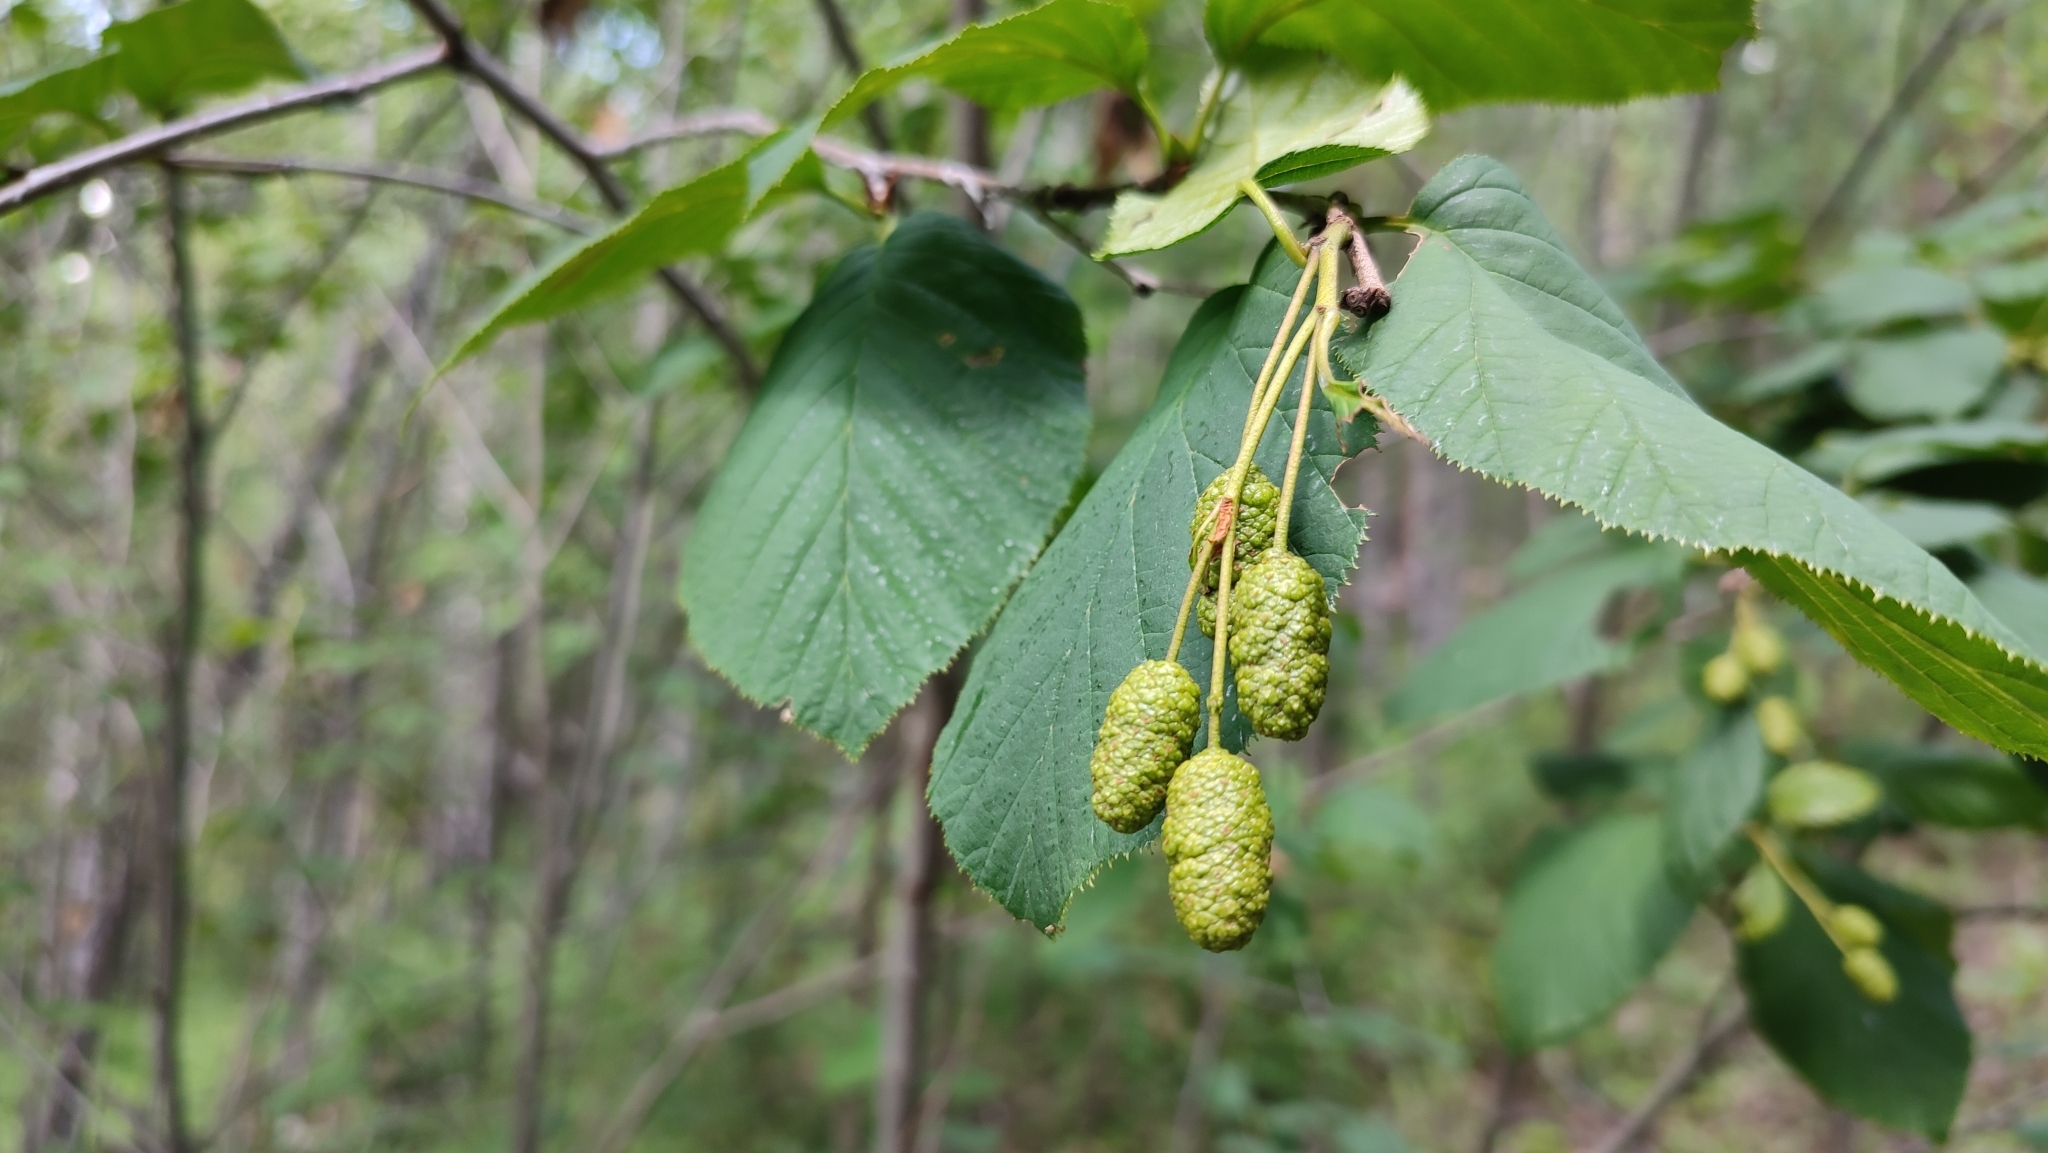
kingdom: Plantae
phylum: Tracheophyta
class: Magnoliopsida
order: Fagales
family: Betulaceae
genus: Alnus
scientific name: Alnus alnobetula
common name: Green alder
